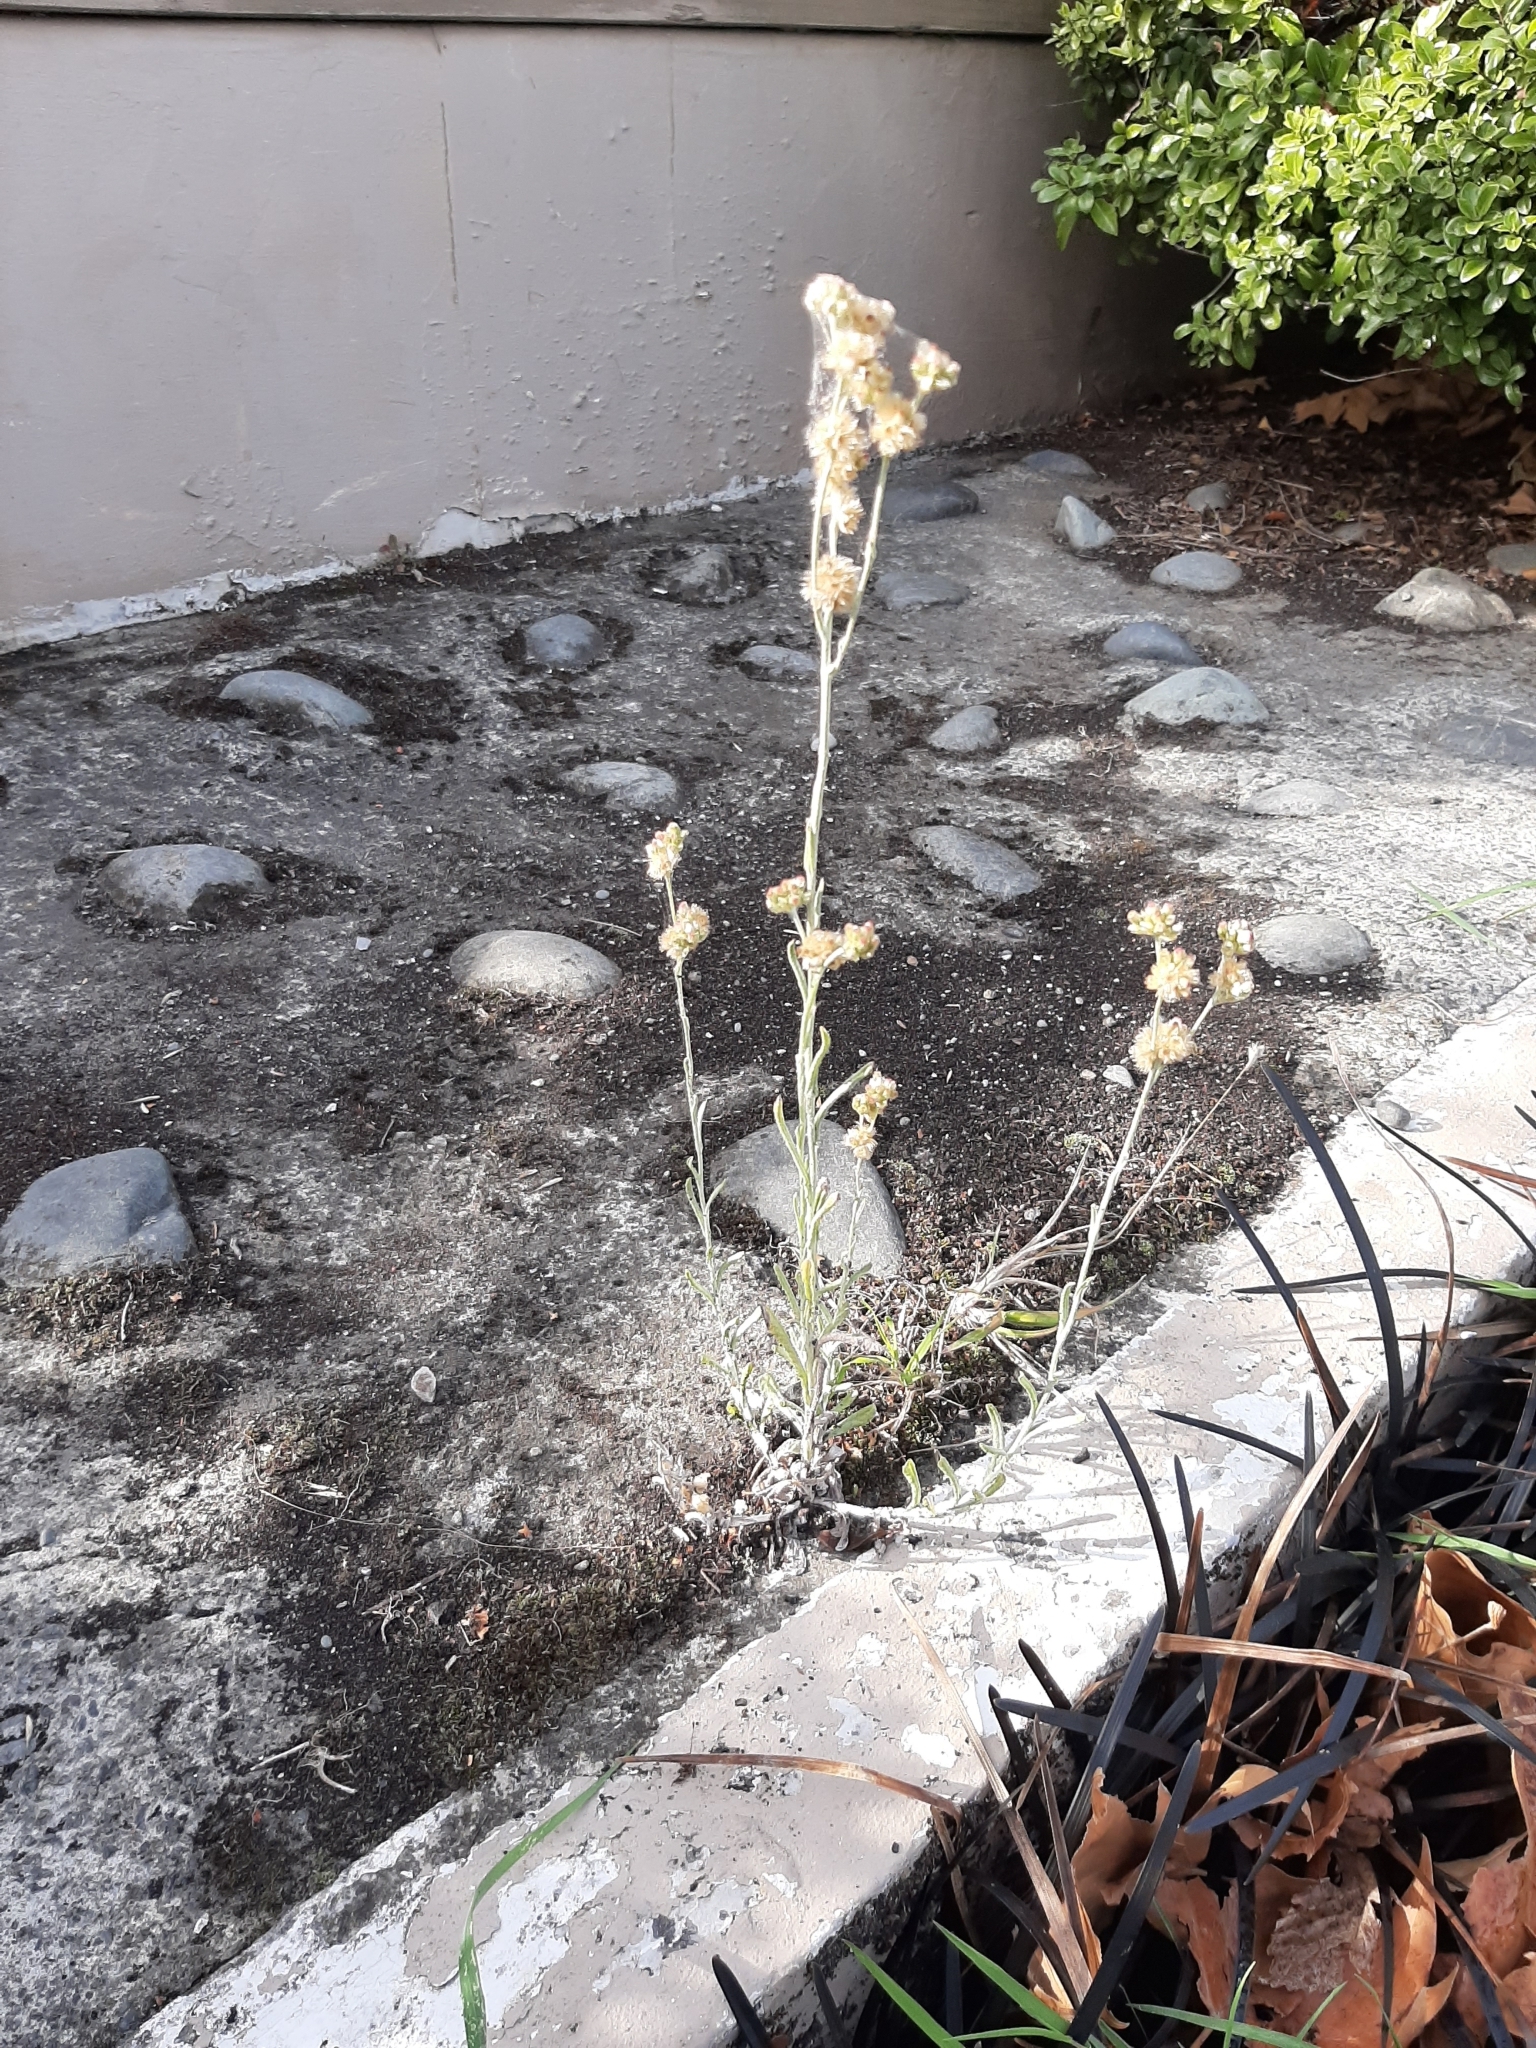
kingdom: Plantae
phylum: Tracheophyta
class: Magnoliopsida
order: Asterales
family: Asteraceae
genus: Helichrysum
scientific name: Helichrysum luteoalbum
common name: Daisy
